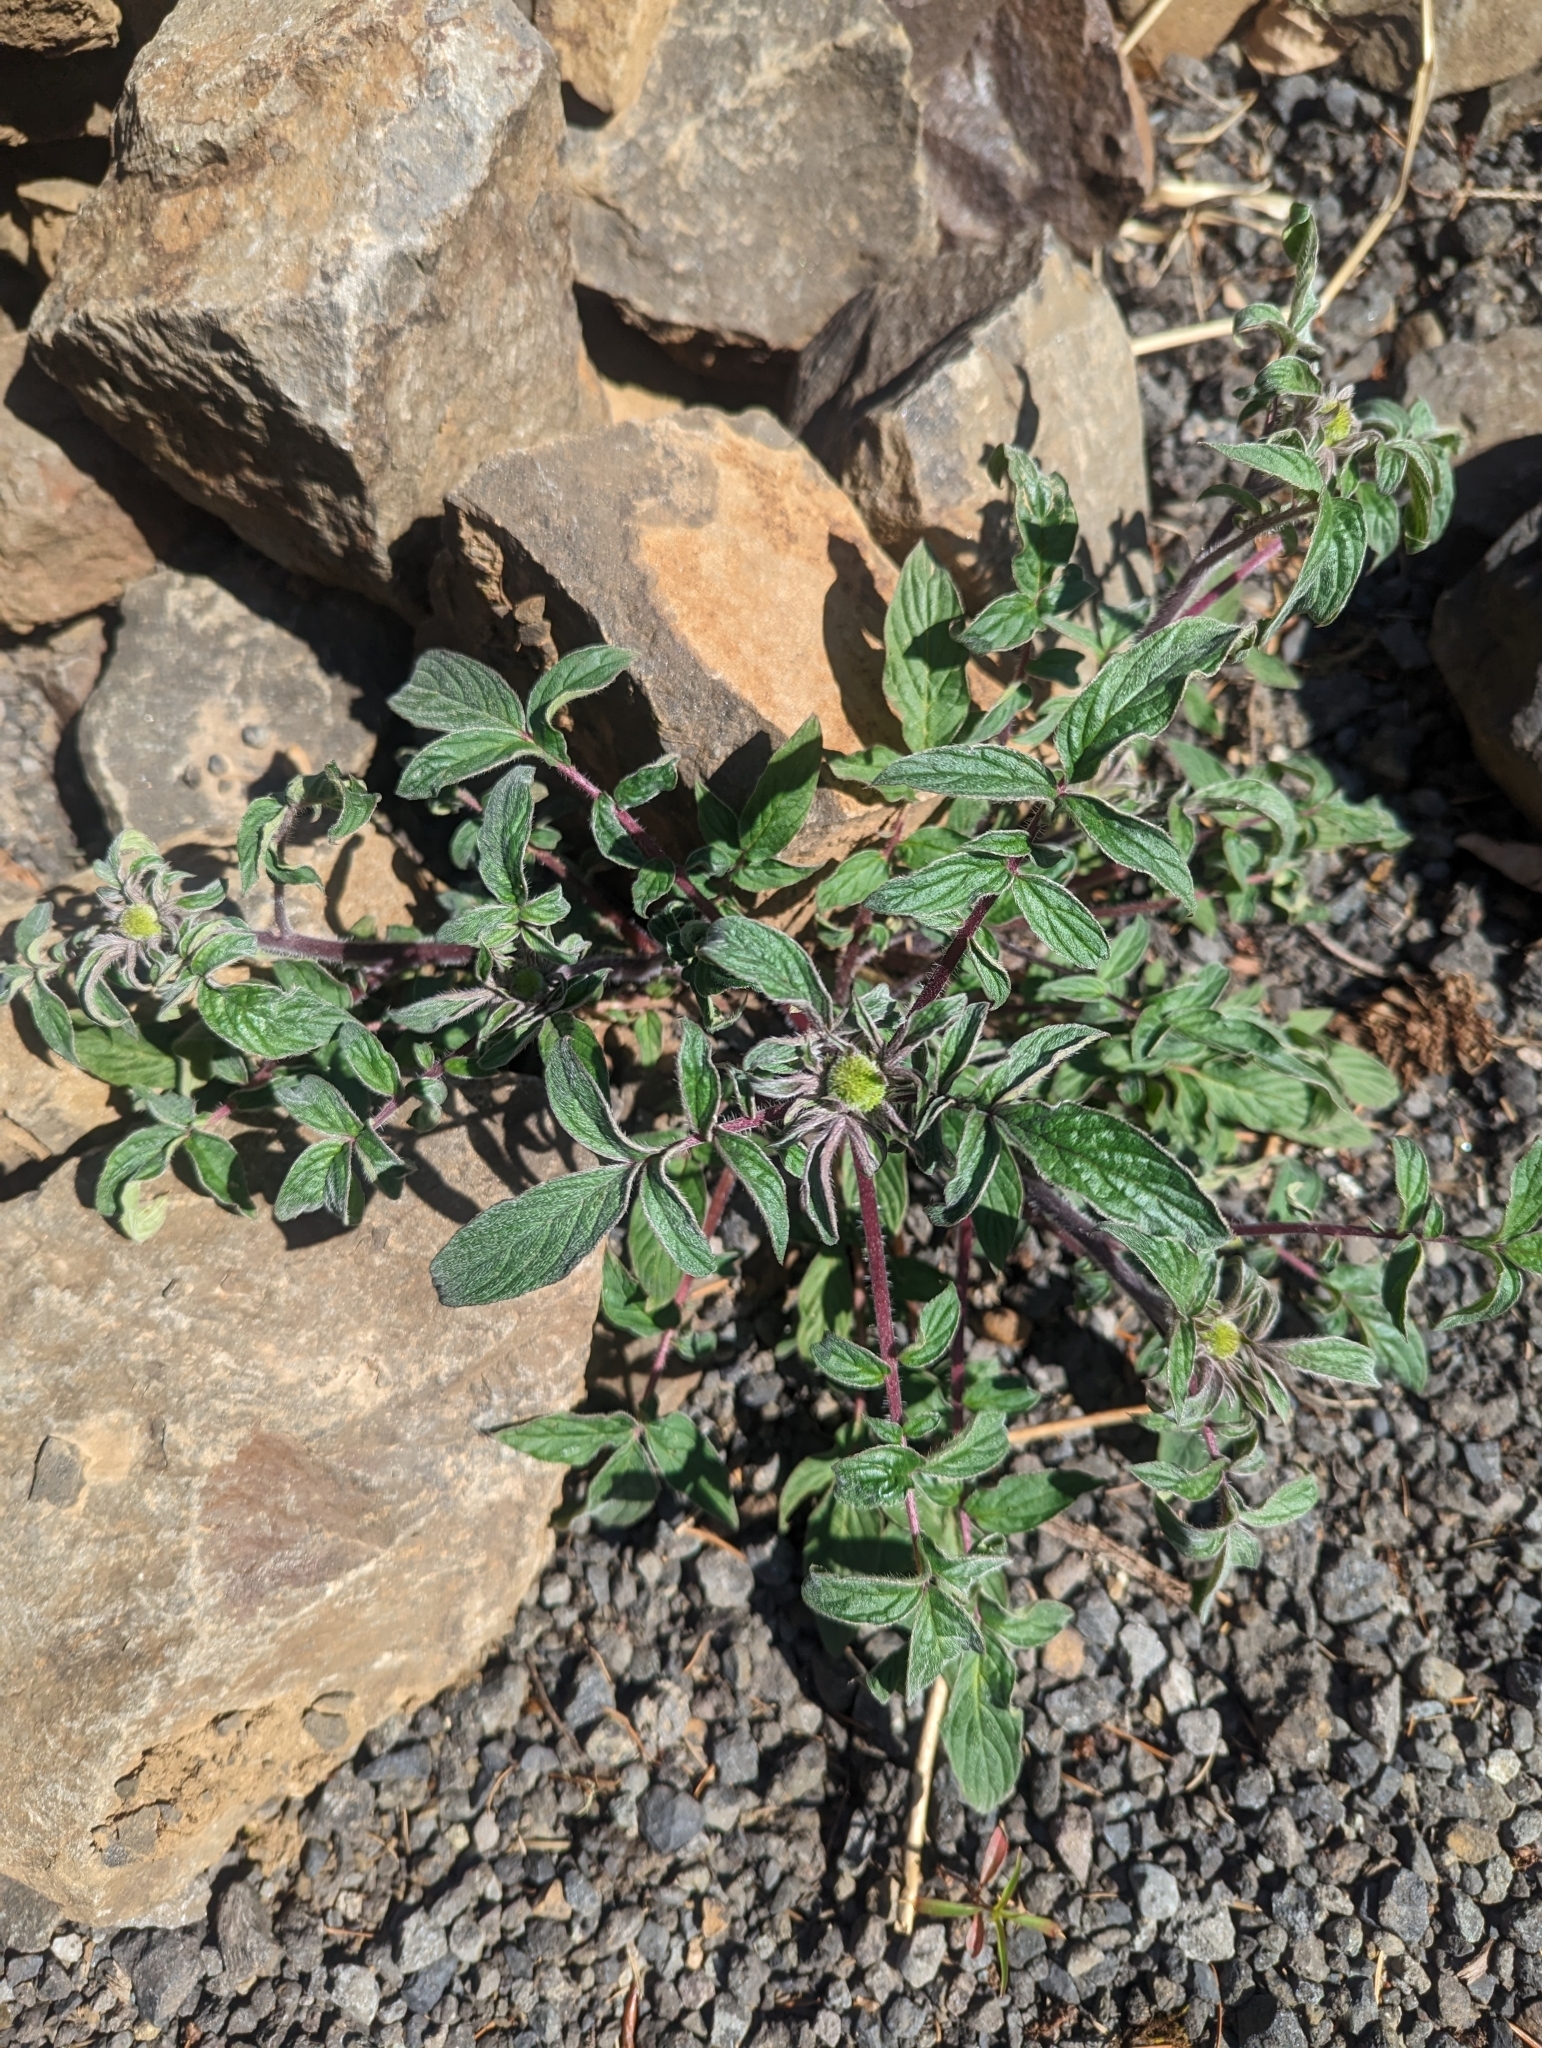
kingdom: Plantae
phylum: Tracheophyta
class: Magnoliopsida
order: Boraginales
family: Hydrophyllaceae
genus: Phacelia
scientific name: Phacelia nemoralis
